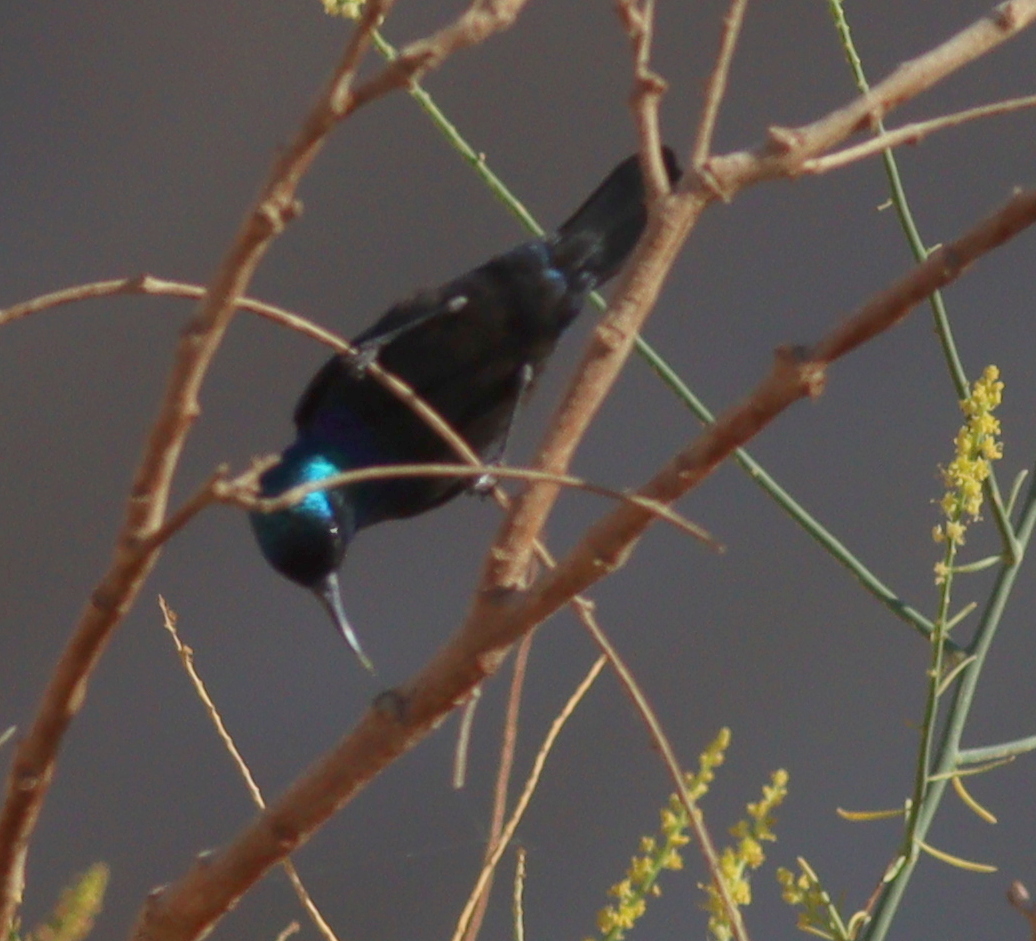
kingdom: Animalia
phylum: Chordata
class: Aves
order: Passeriformes
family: Nectariniidae
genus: Cinnyris
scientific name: Cinnyris osea
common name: Palestine sunbird
